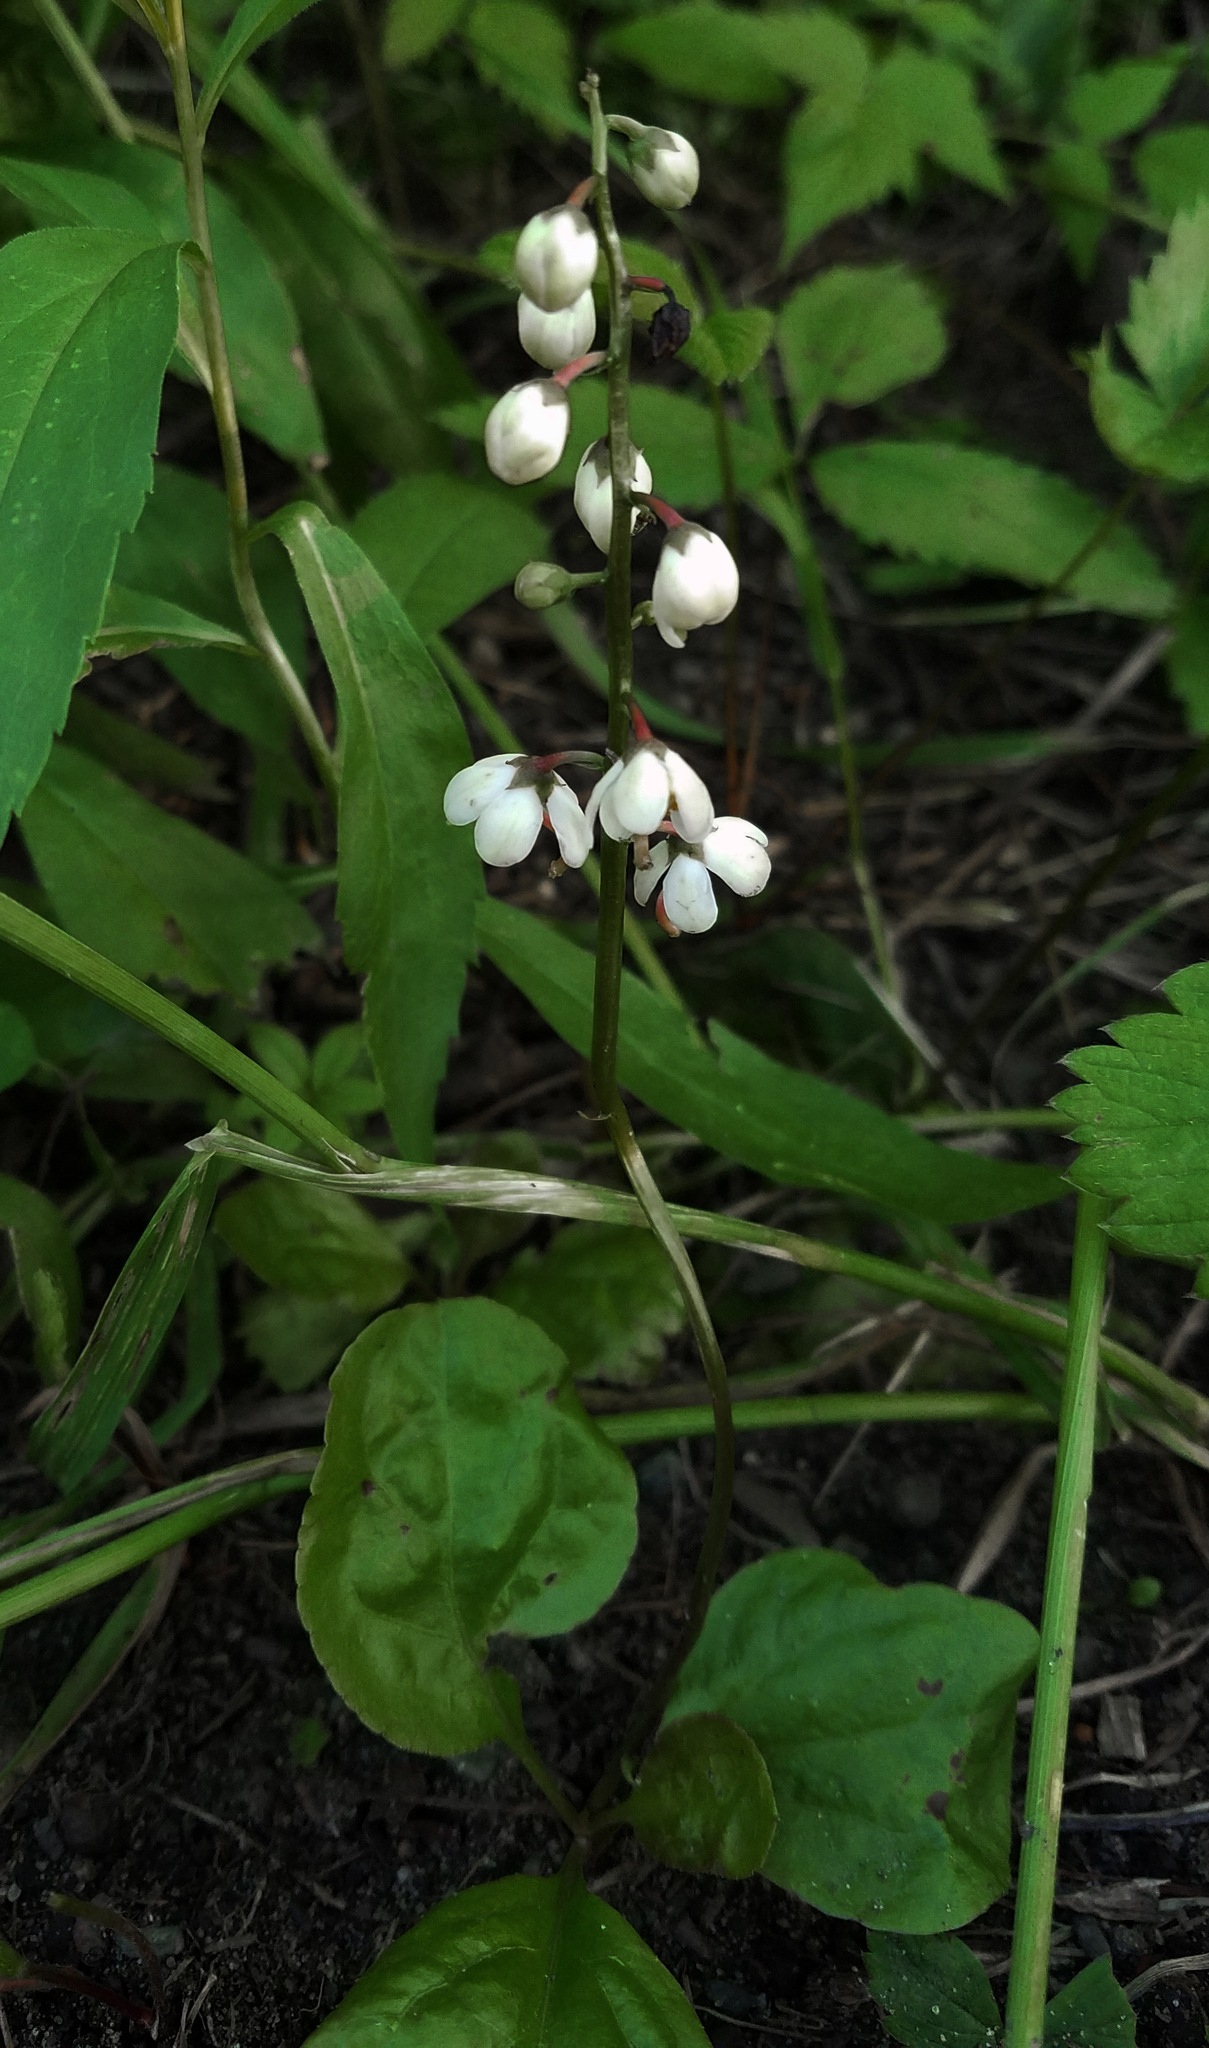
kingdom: Plantae
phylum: Tracheophyta
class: Magnoliopsida
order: Ericales
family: Ericaceae
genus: Pyrola
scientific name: Pyrola elliptica
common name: Shinleaf
